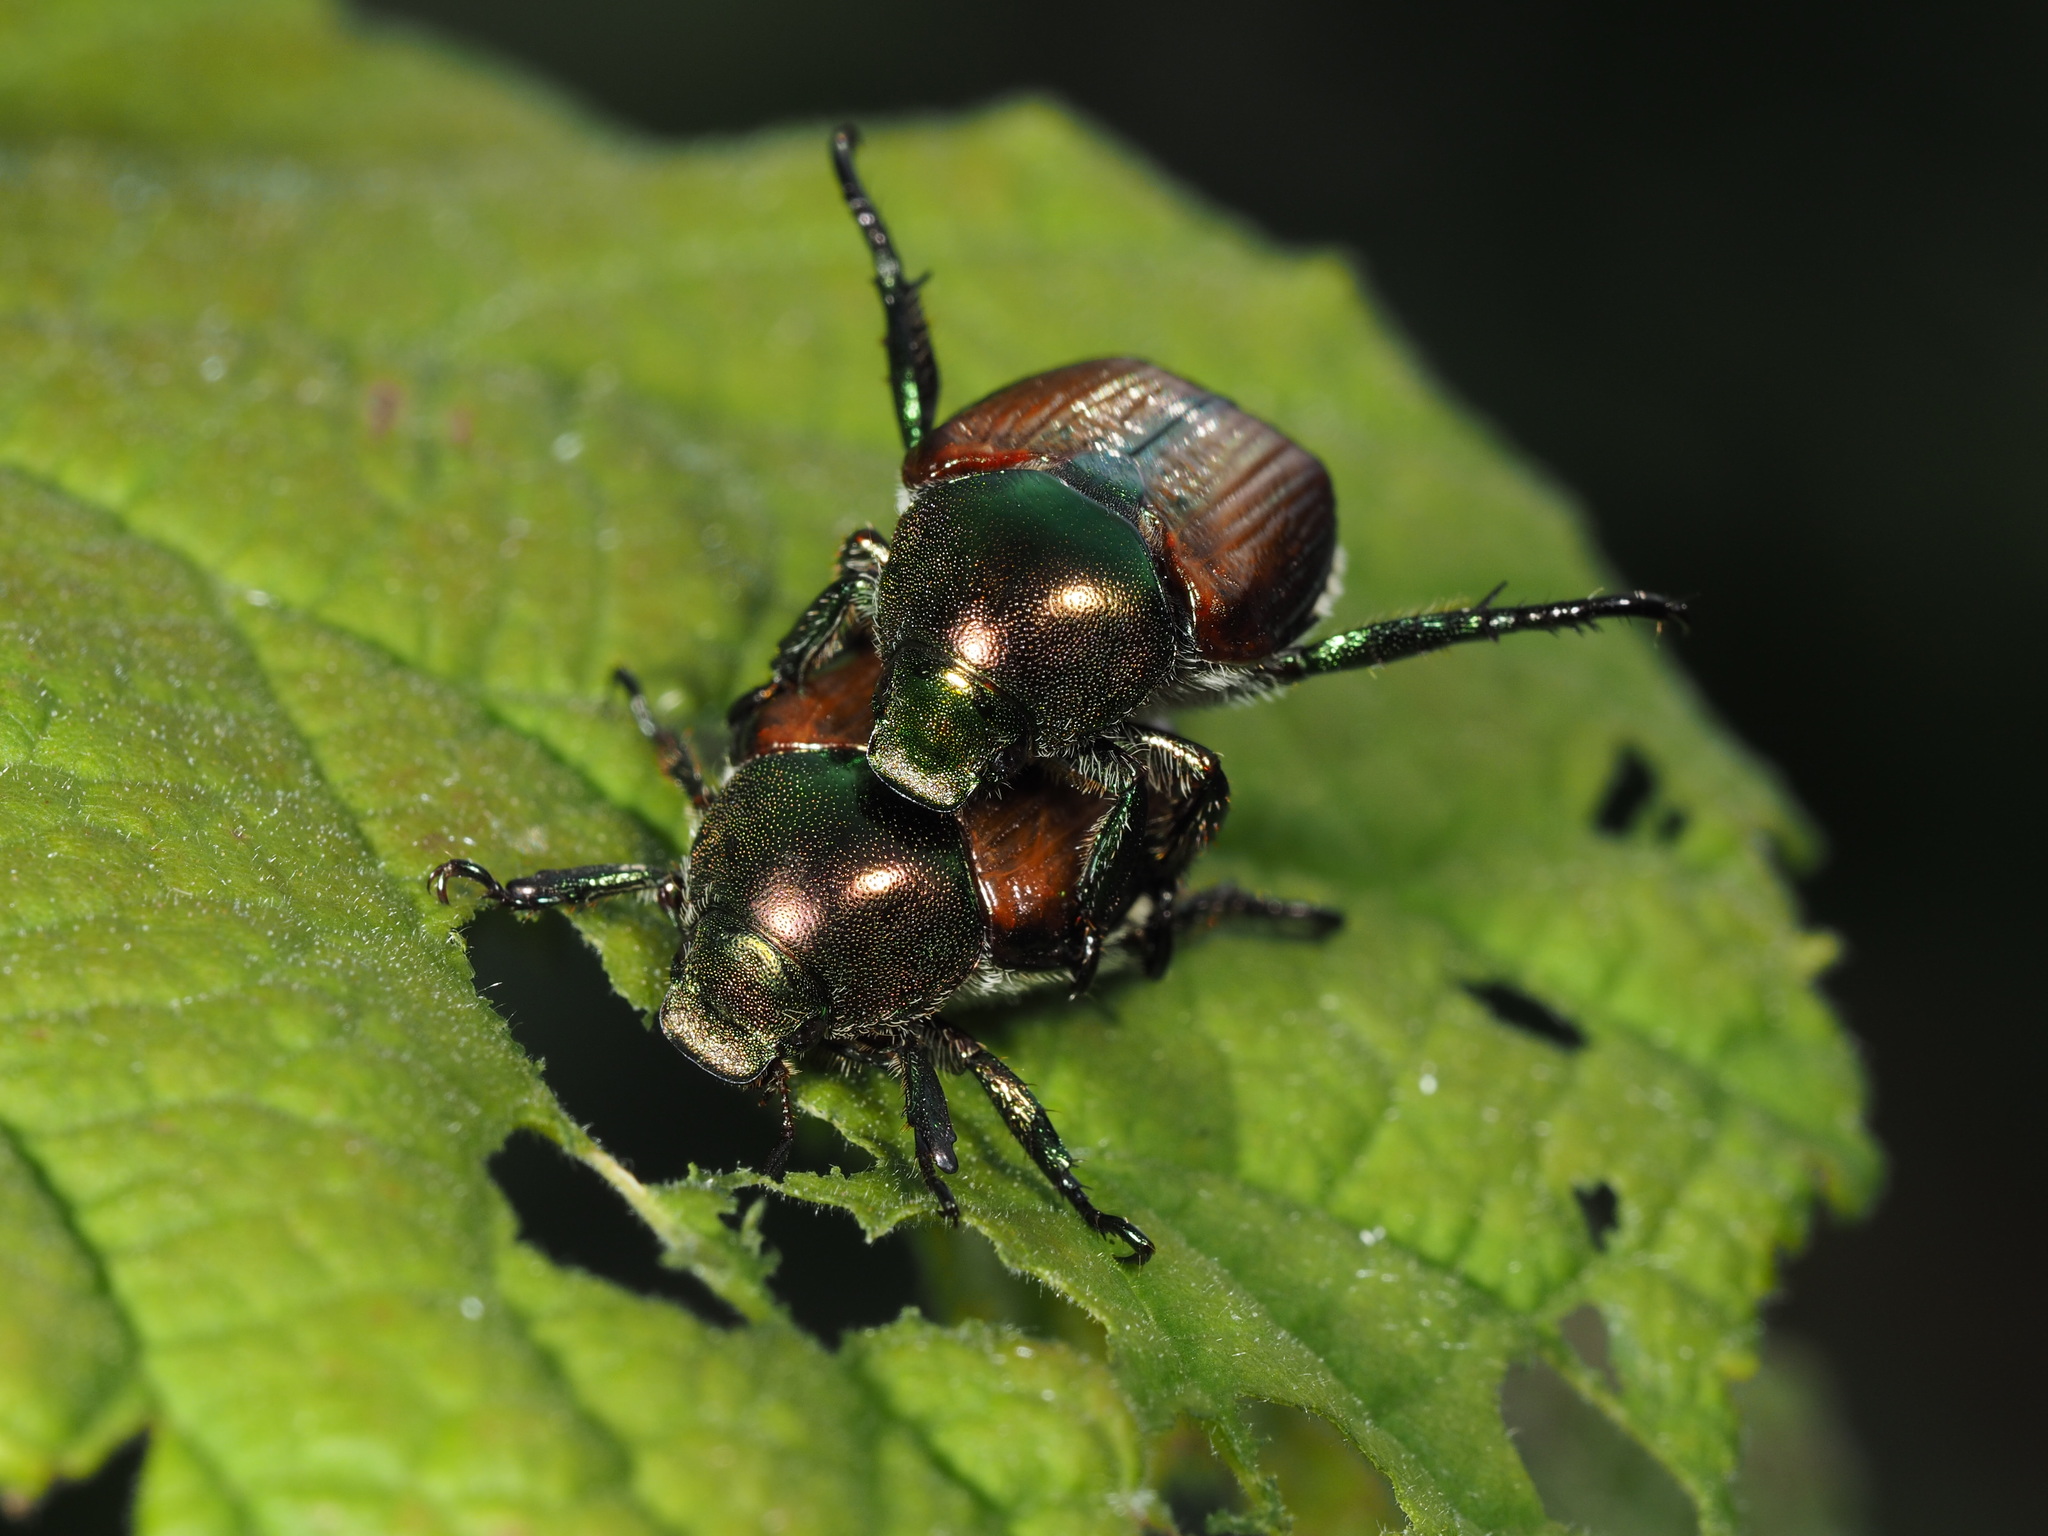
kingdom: Animalia
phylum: Arthropoda
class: Insecta
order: Coleoptera
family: Scarabaeidae
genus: Popillia
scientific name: Popillia japonica
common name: Japanese beetle
